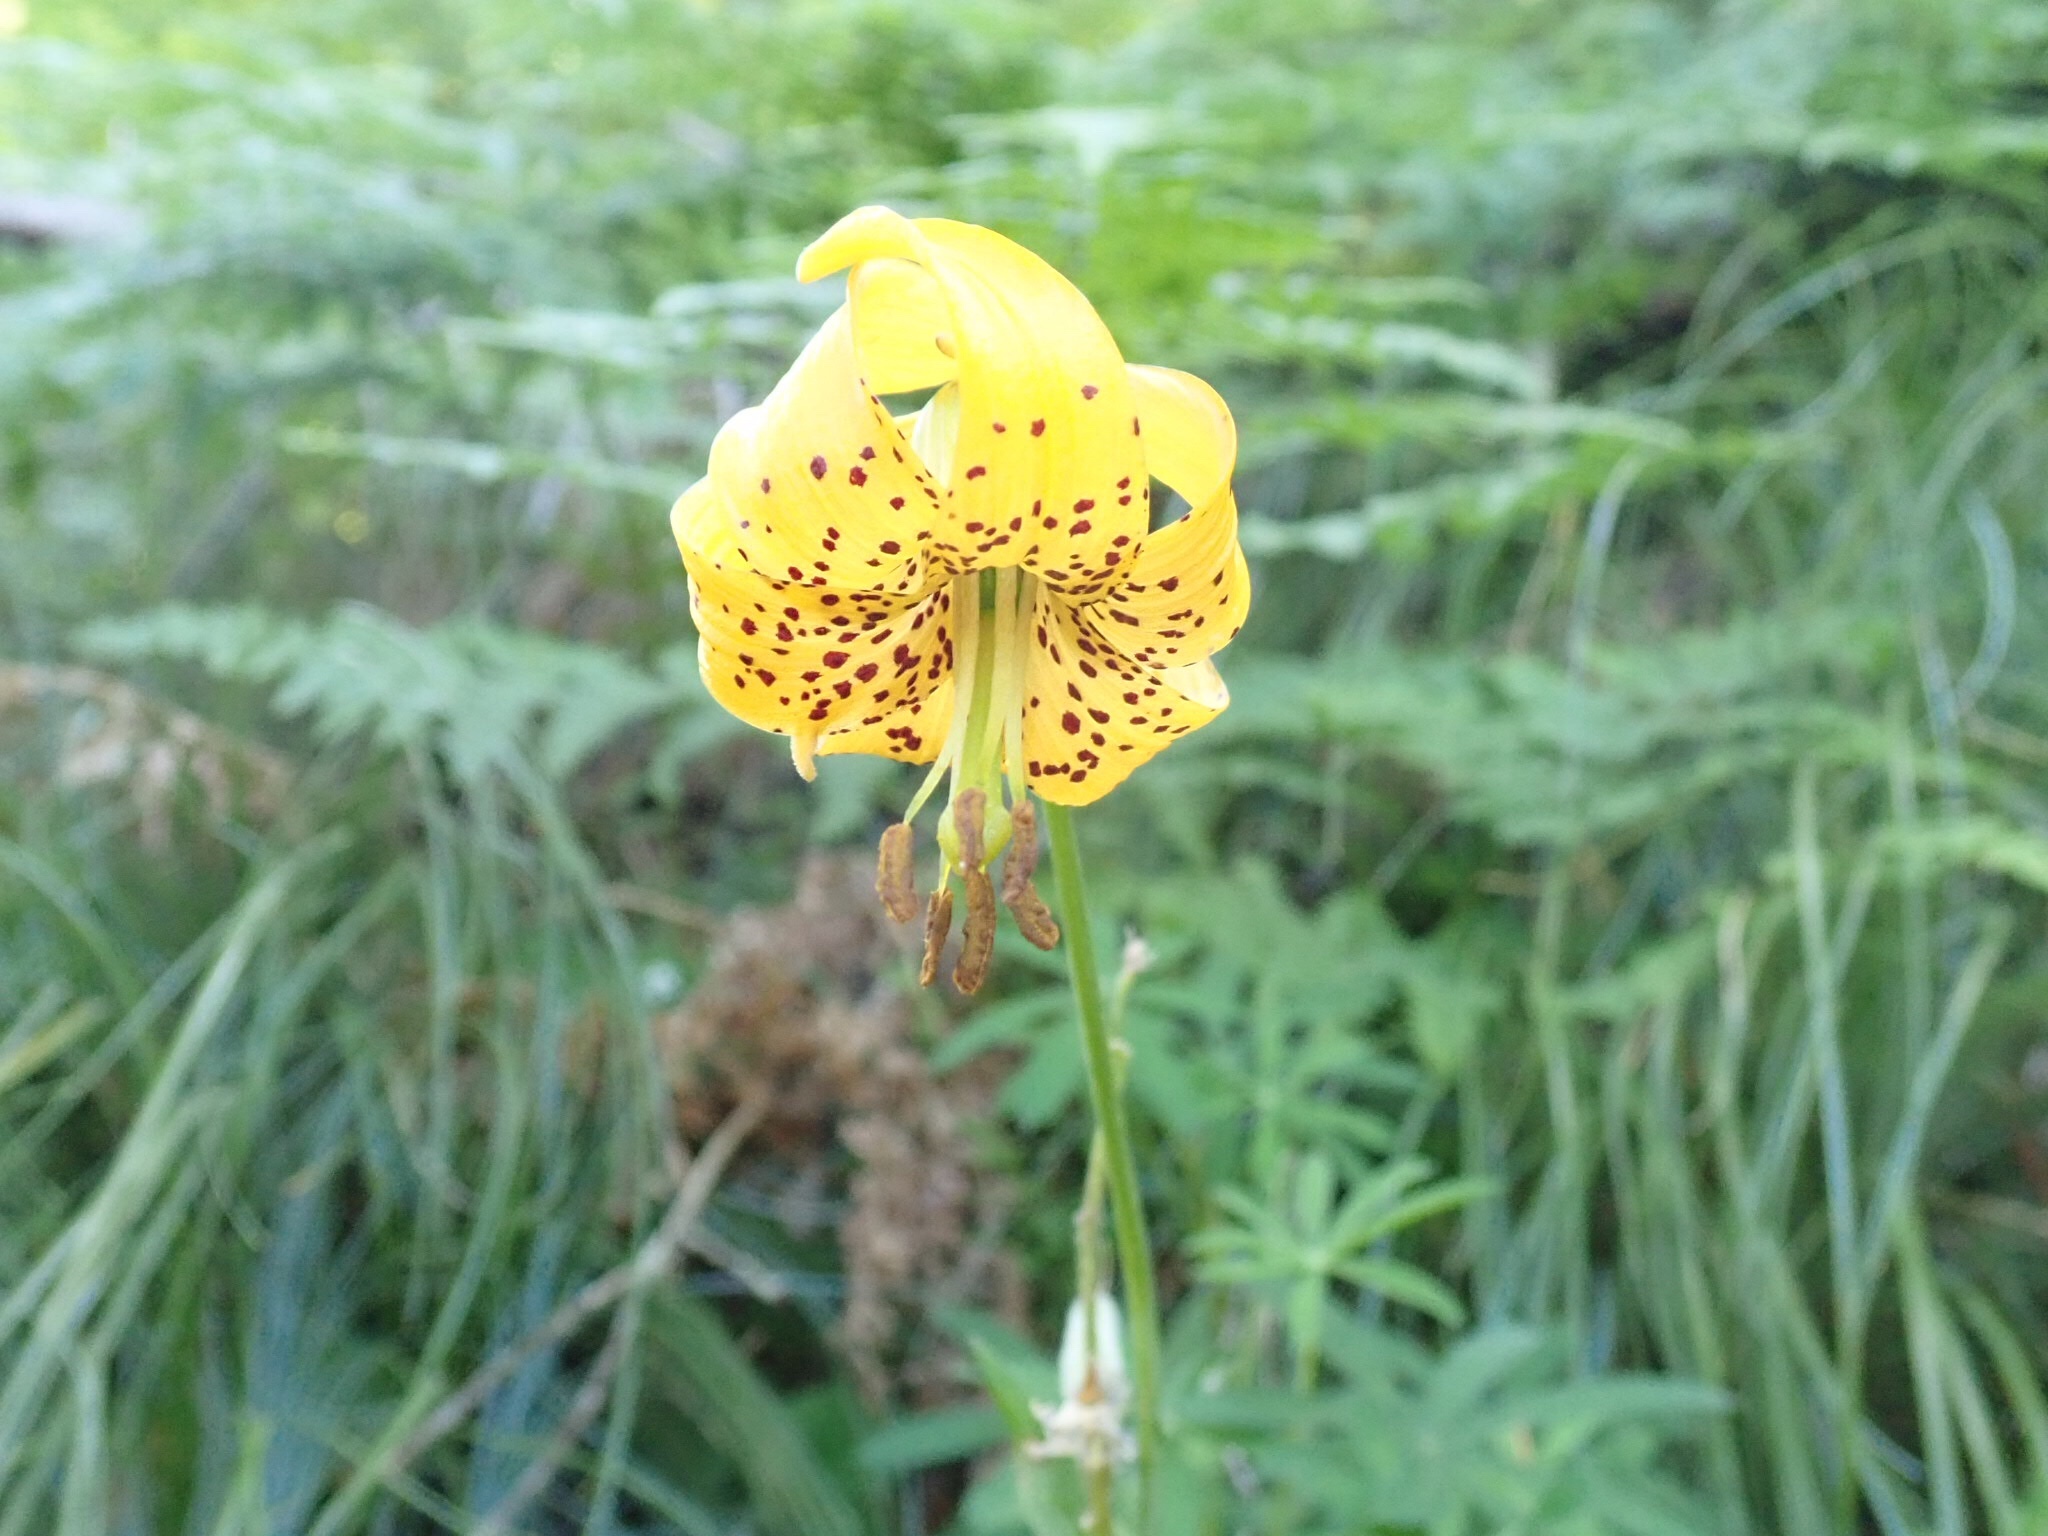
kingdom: Plantae
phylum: Tracheophyta
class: Liliopsida
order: Liliales
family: Liliaceae
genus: Lilium
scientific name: Lilium columbianum
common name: Columbia lily
